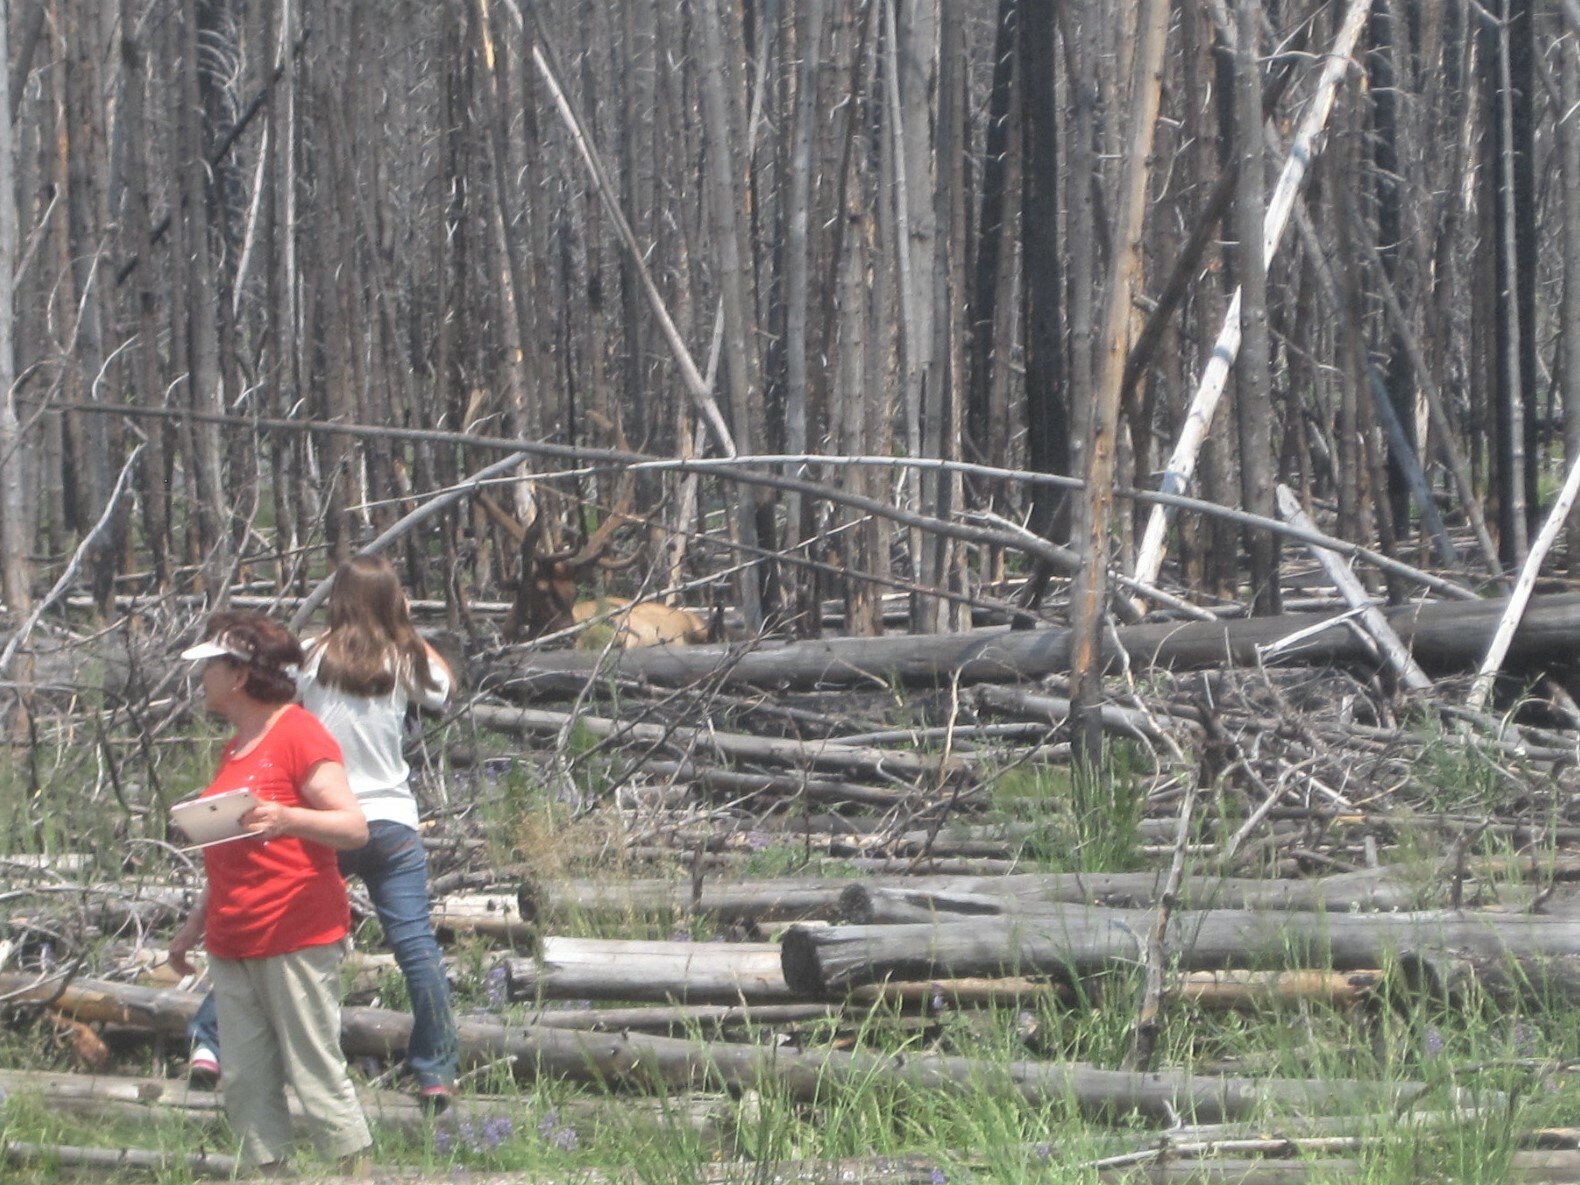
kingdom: Animalia
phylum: Chordata
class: Mammalia
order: Artiodactyla
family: Cervidae
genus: Cervus
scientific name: Cervus elaphus
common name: Red deer
